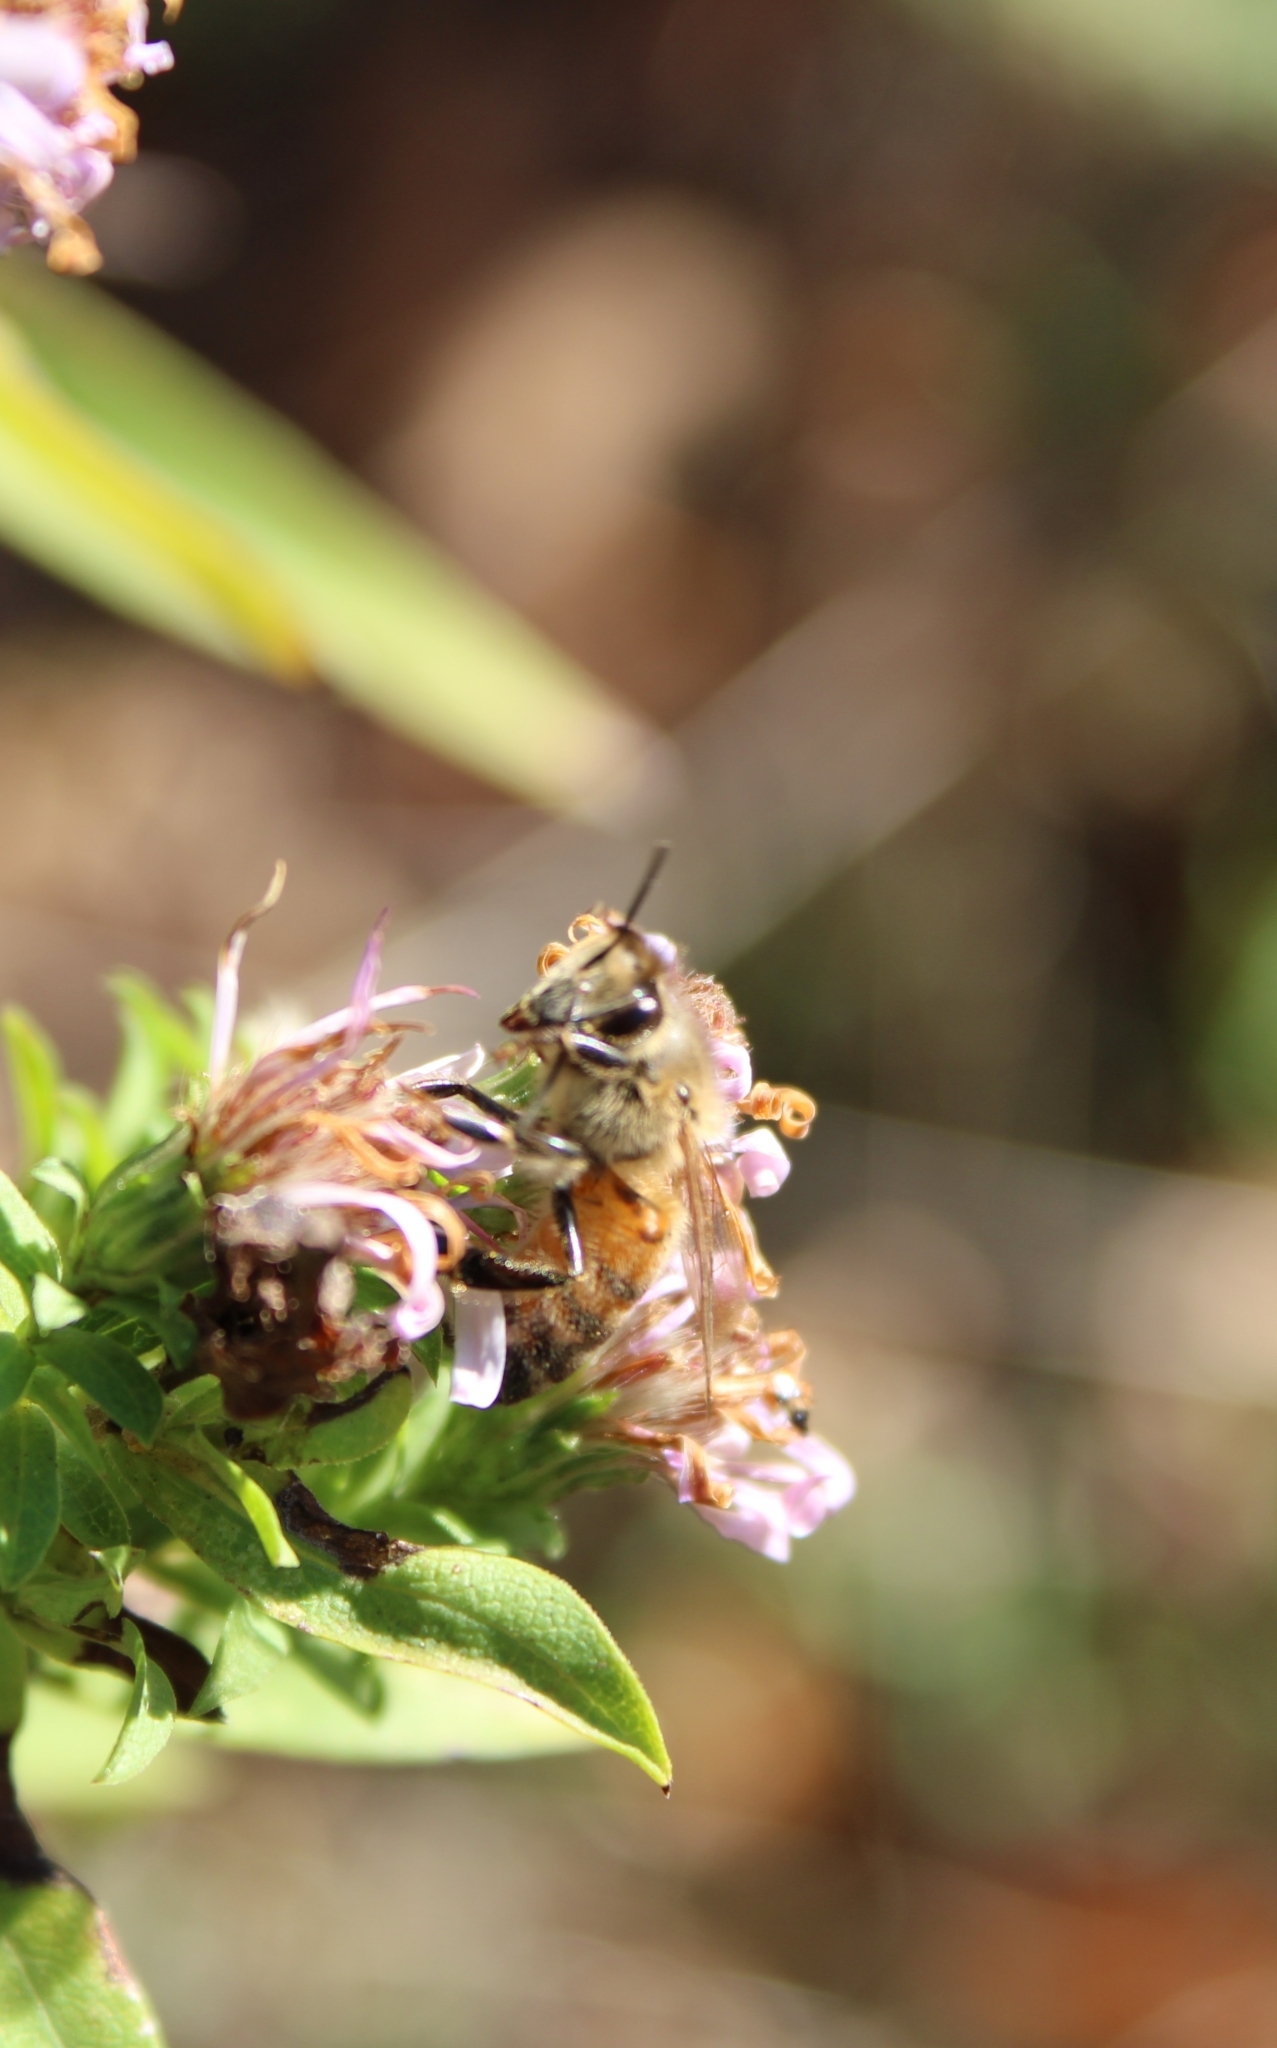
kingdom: Animalia
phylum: Arthropoda
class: Insecta
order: Hymenoptera
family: Apidae
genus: Apis
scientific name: Apis mellifera
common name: Honey bee
